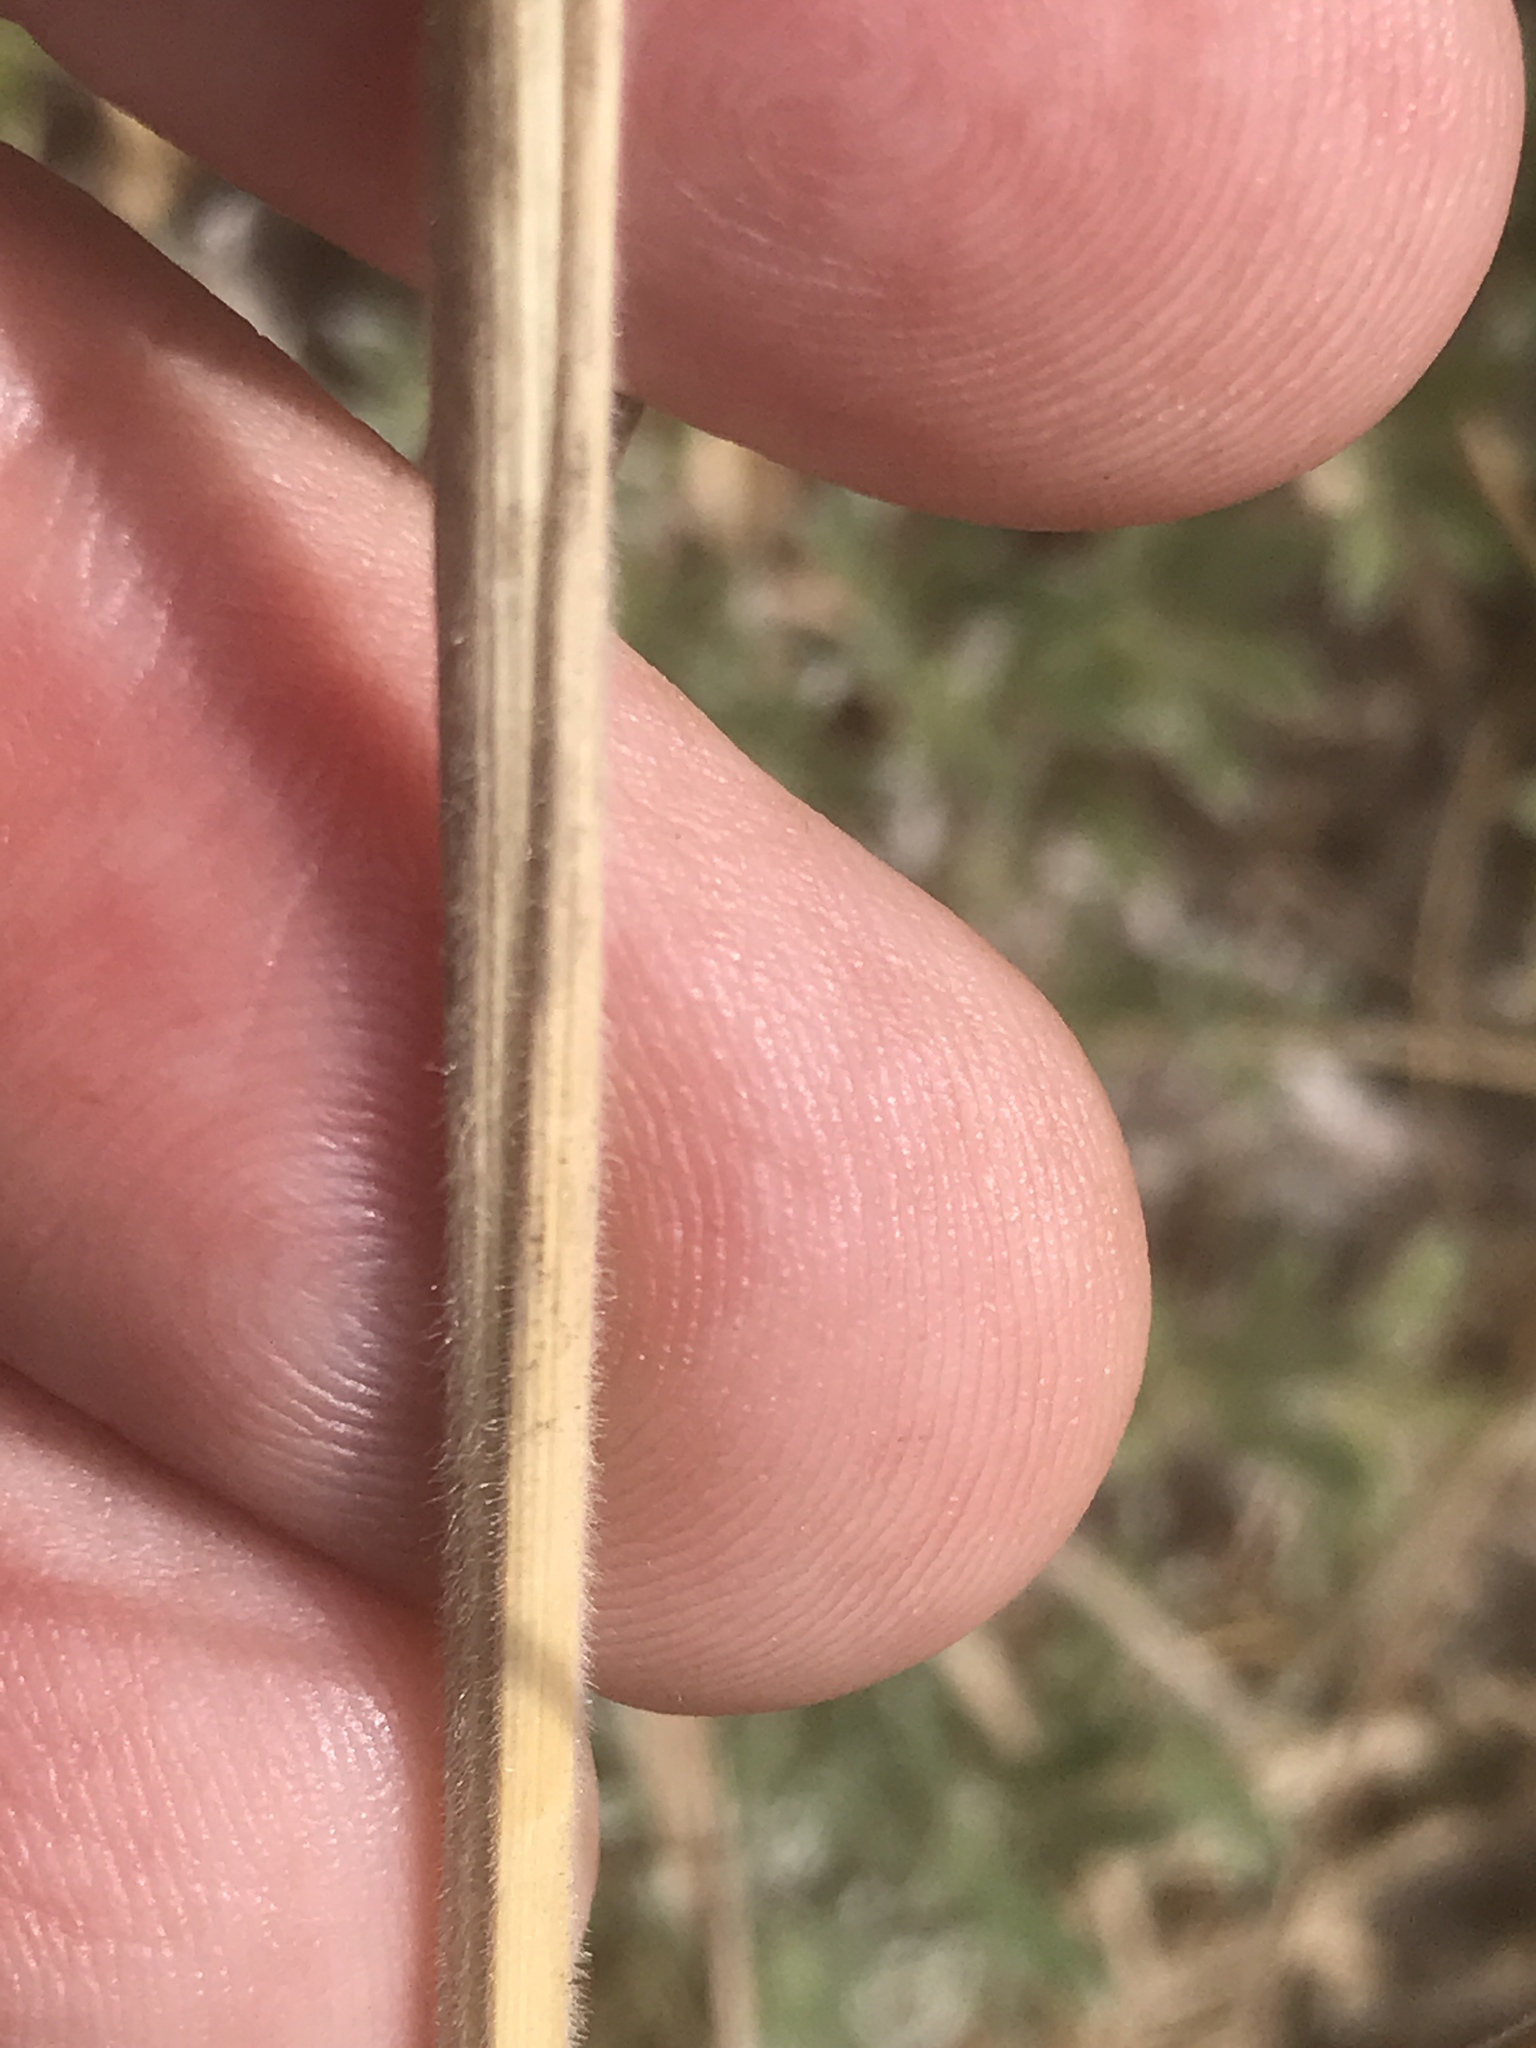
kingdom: Plantae
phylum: Tracheophyta
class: Liliopsida
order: Poales
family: Poaceae
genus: Holcus
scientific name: Holcus lanatus
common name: Yorkshire-fog
